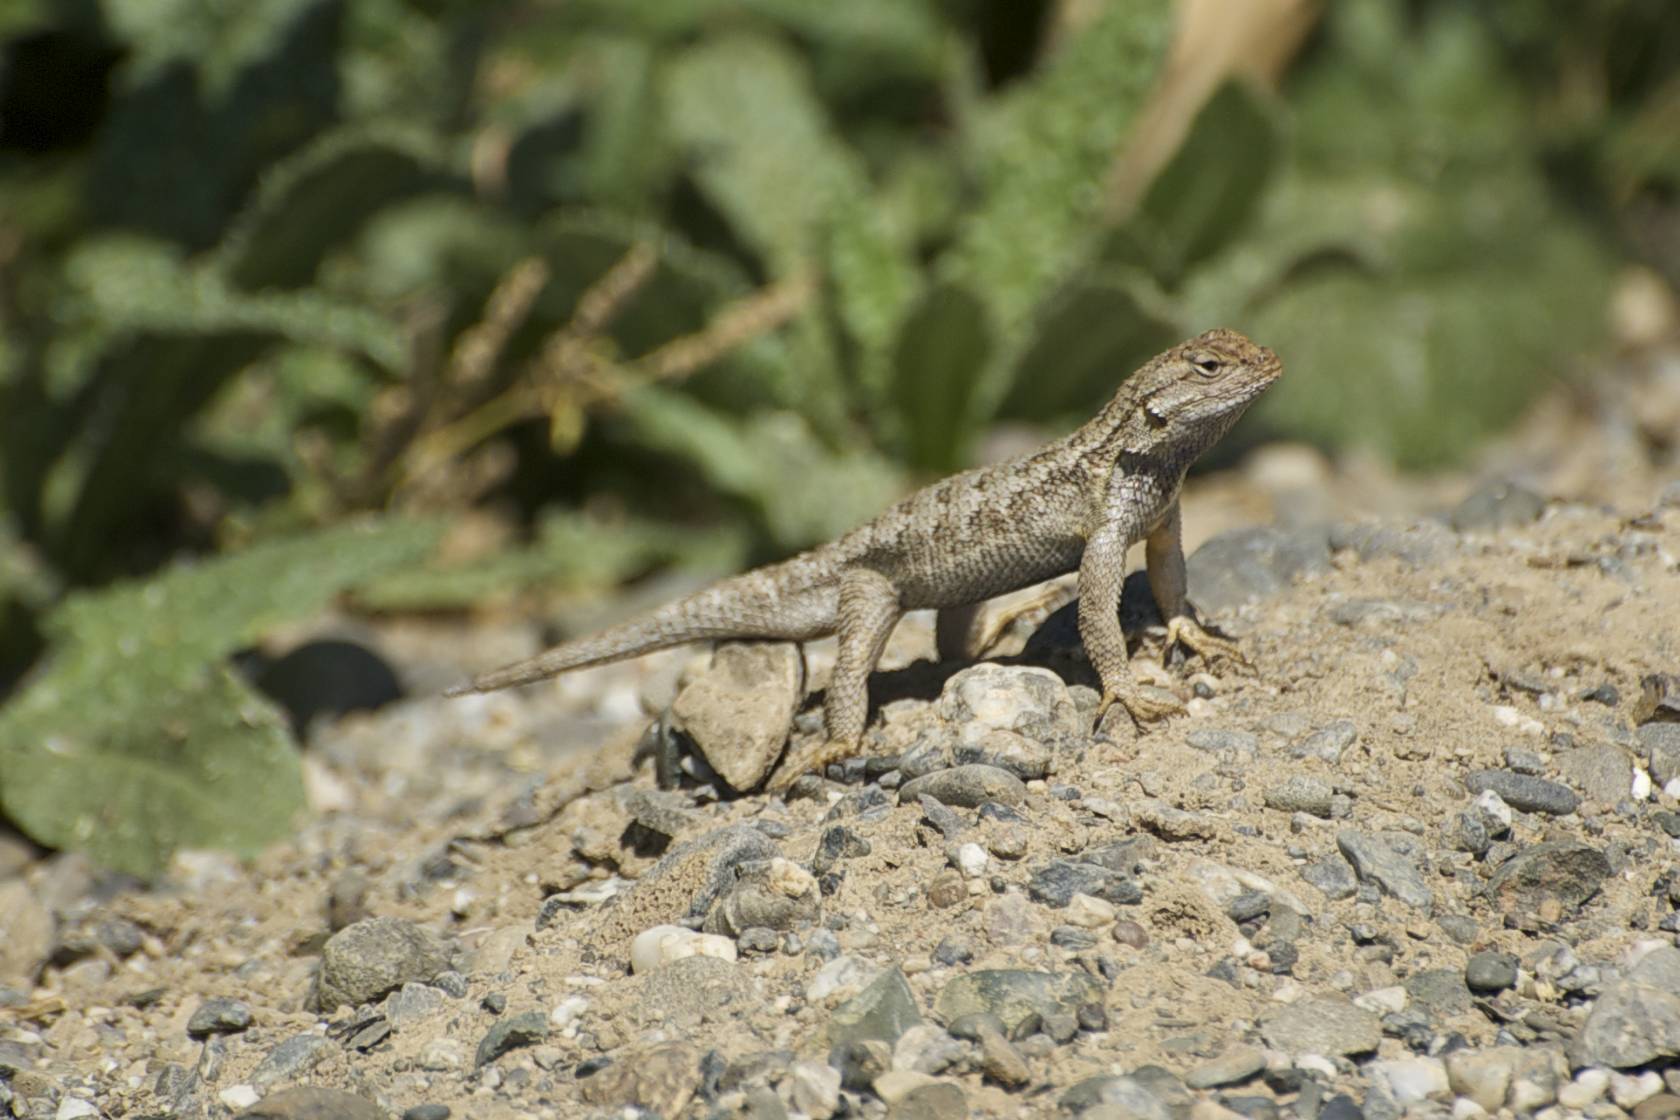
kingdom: Animalia
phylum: Chordata
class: Squamata
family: Phrynosomatidae
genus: Sceloporus
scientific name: Sceloporus occidentalis
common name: Western fence lizard
